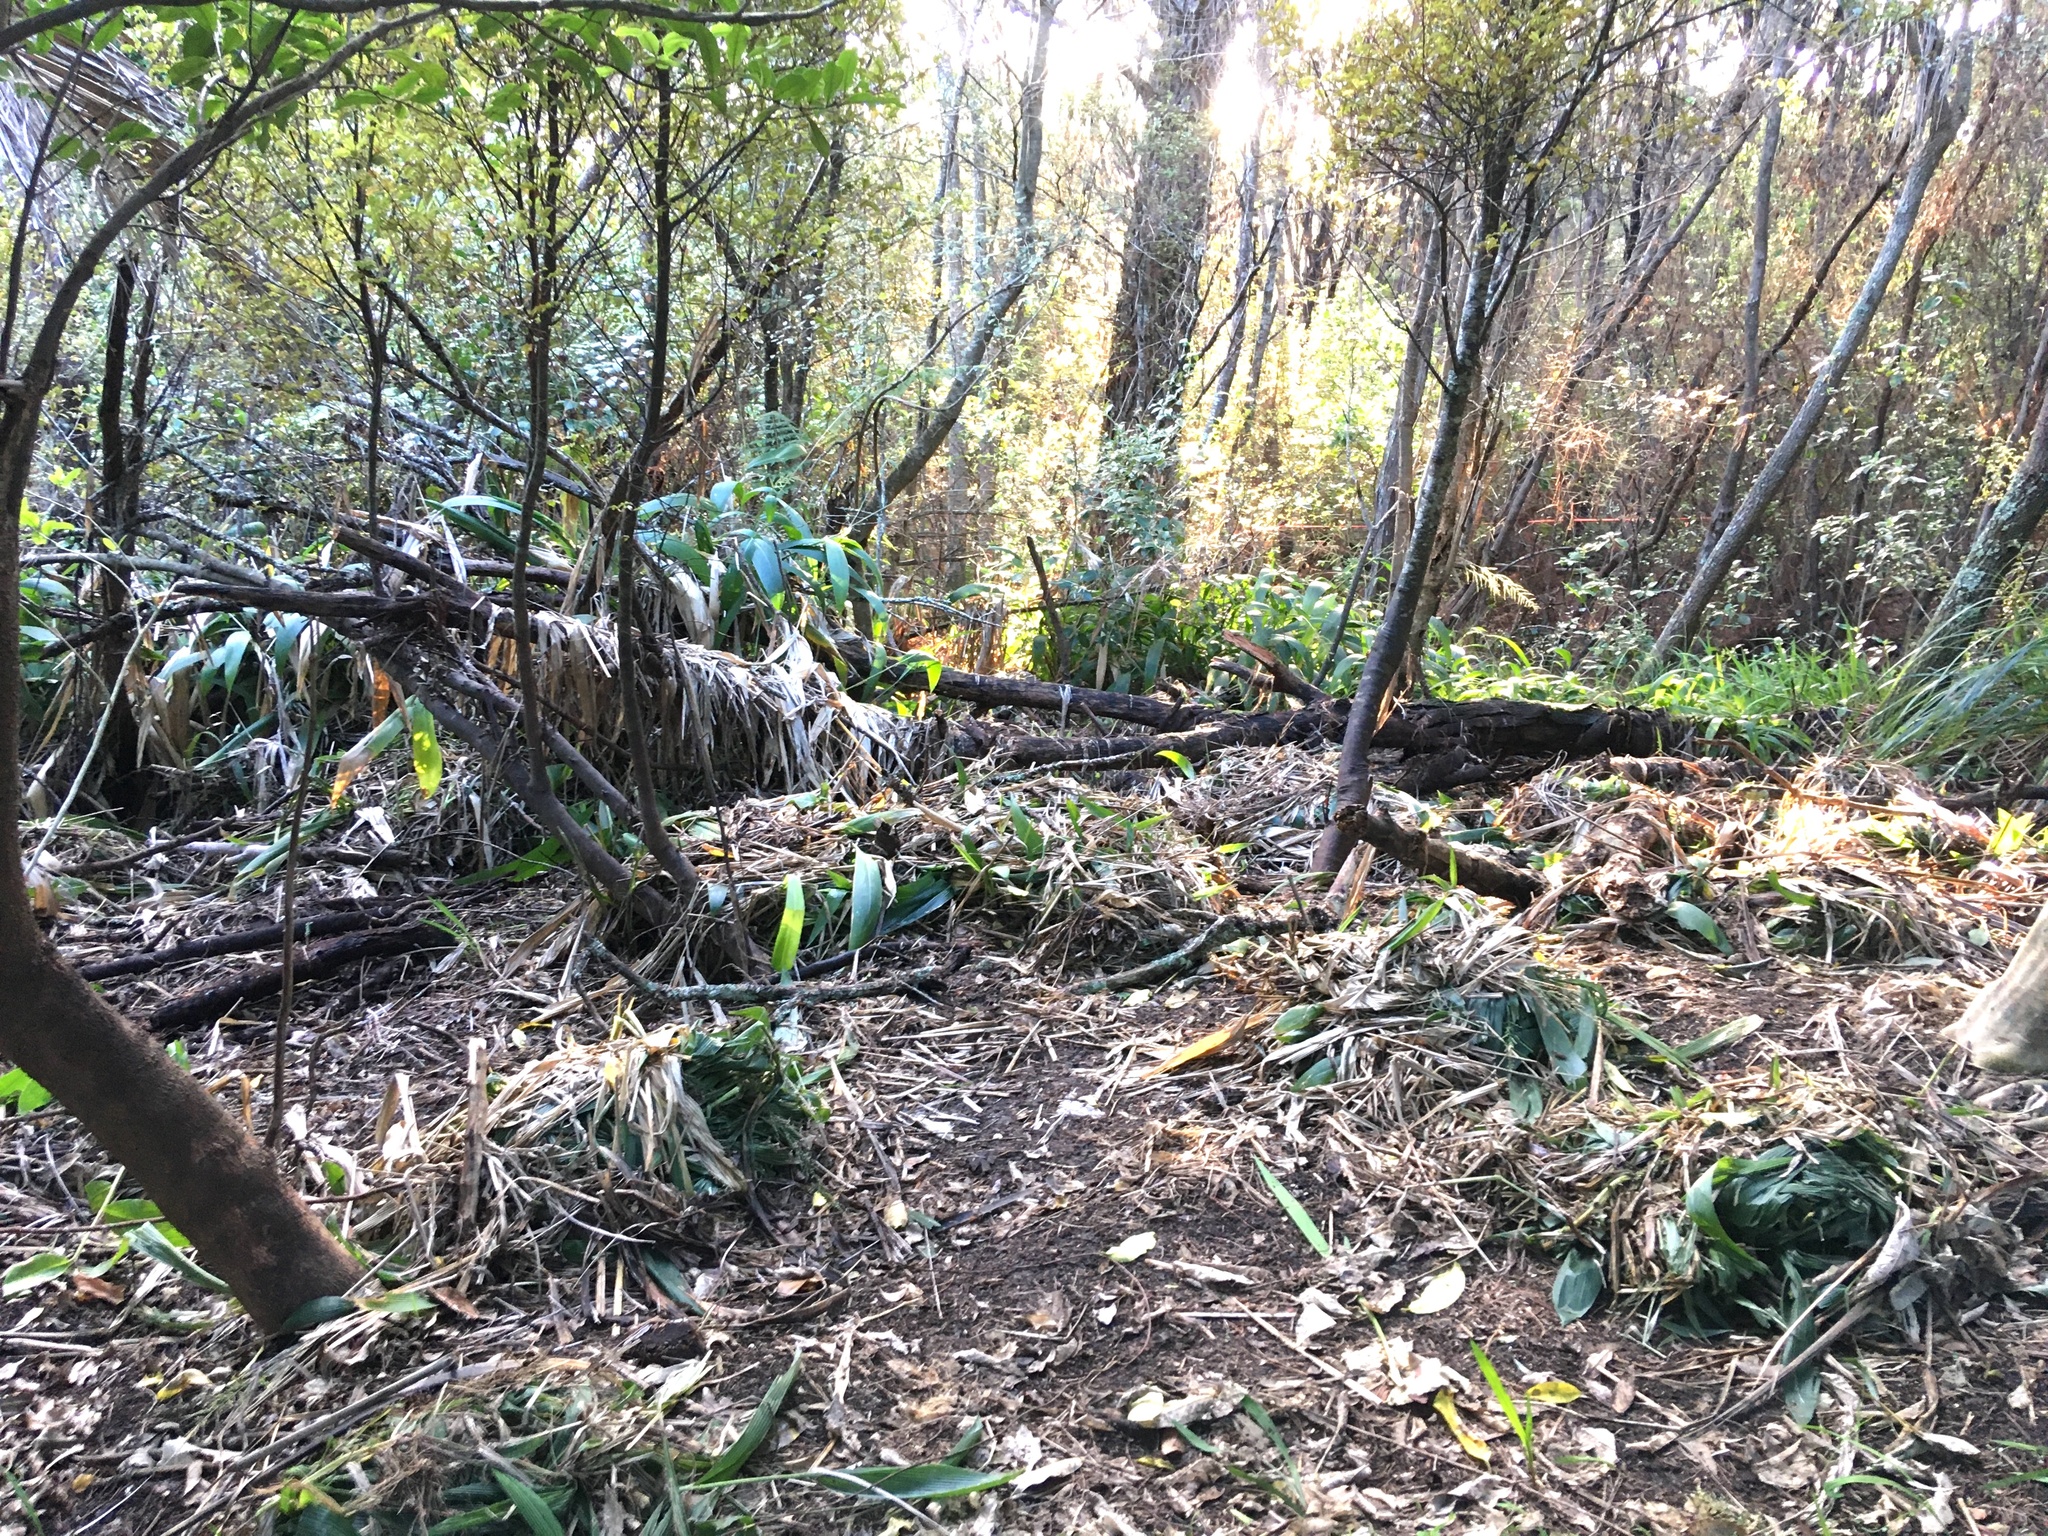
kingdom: Plantae
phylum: Tracheophyta
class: Magnoliopsida
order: Ericales
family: Primulaceae
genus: Myrsine
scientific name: Myrsine australis
